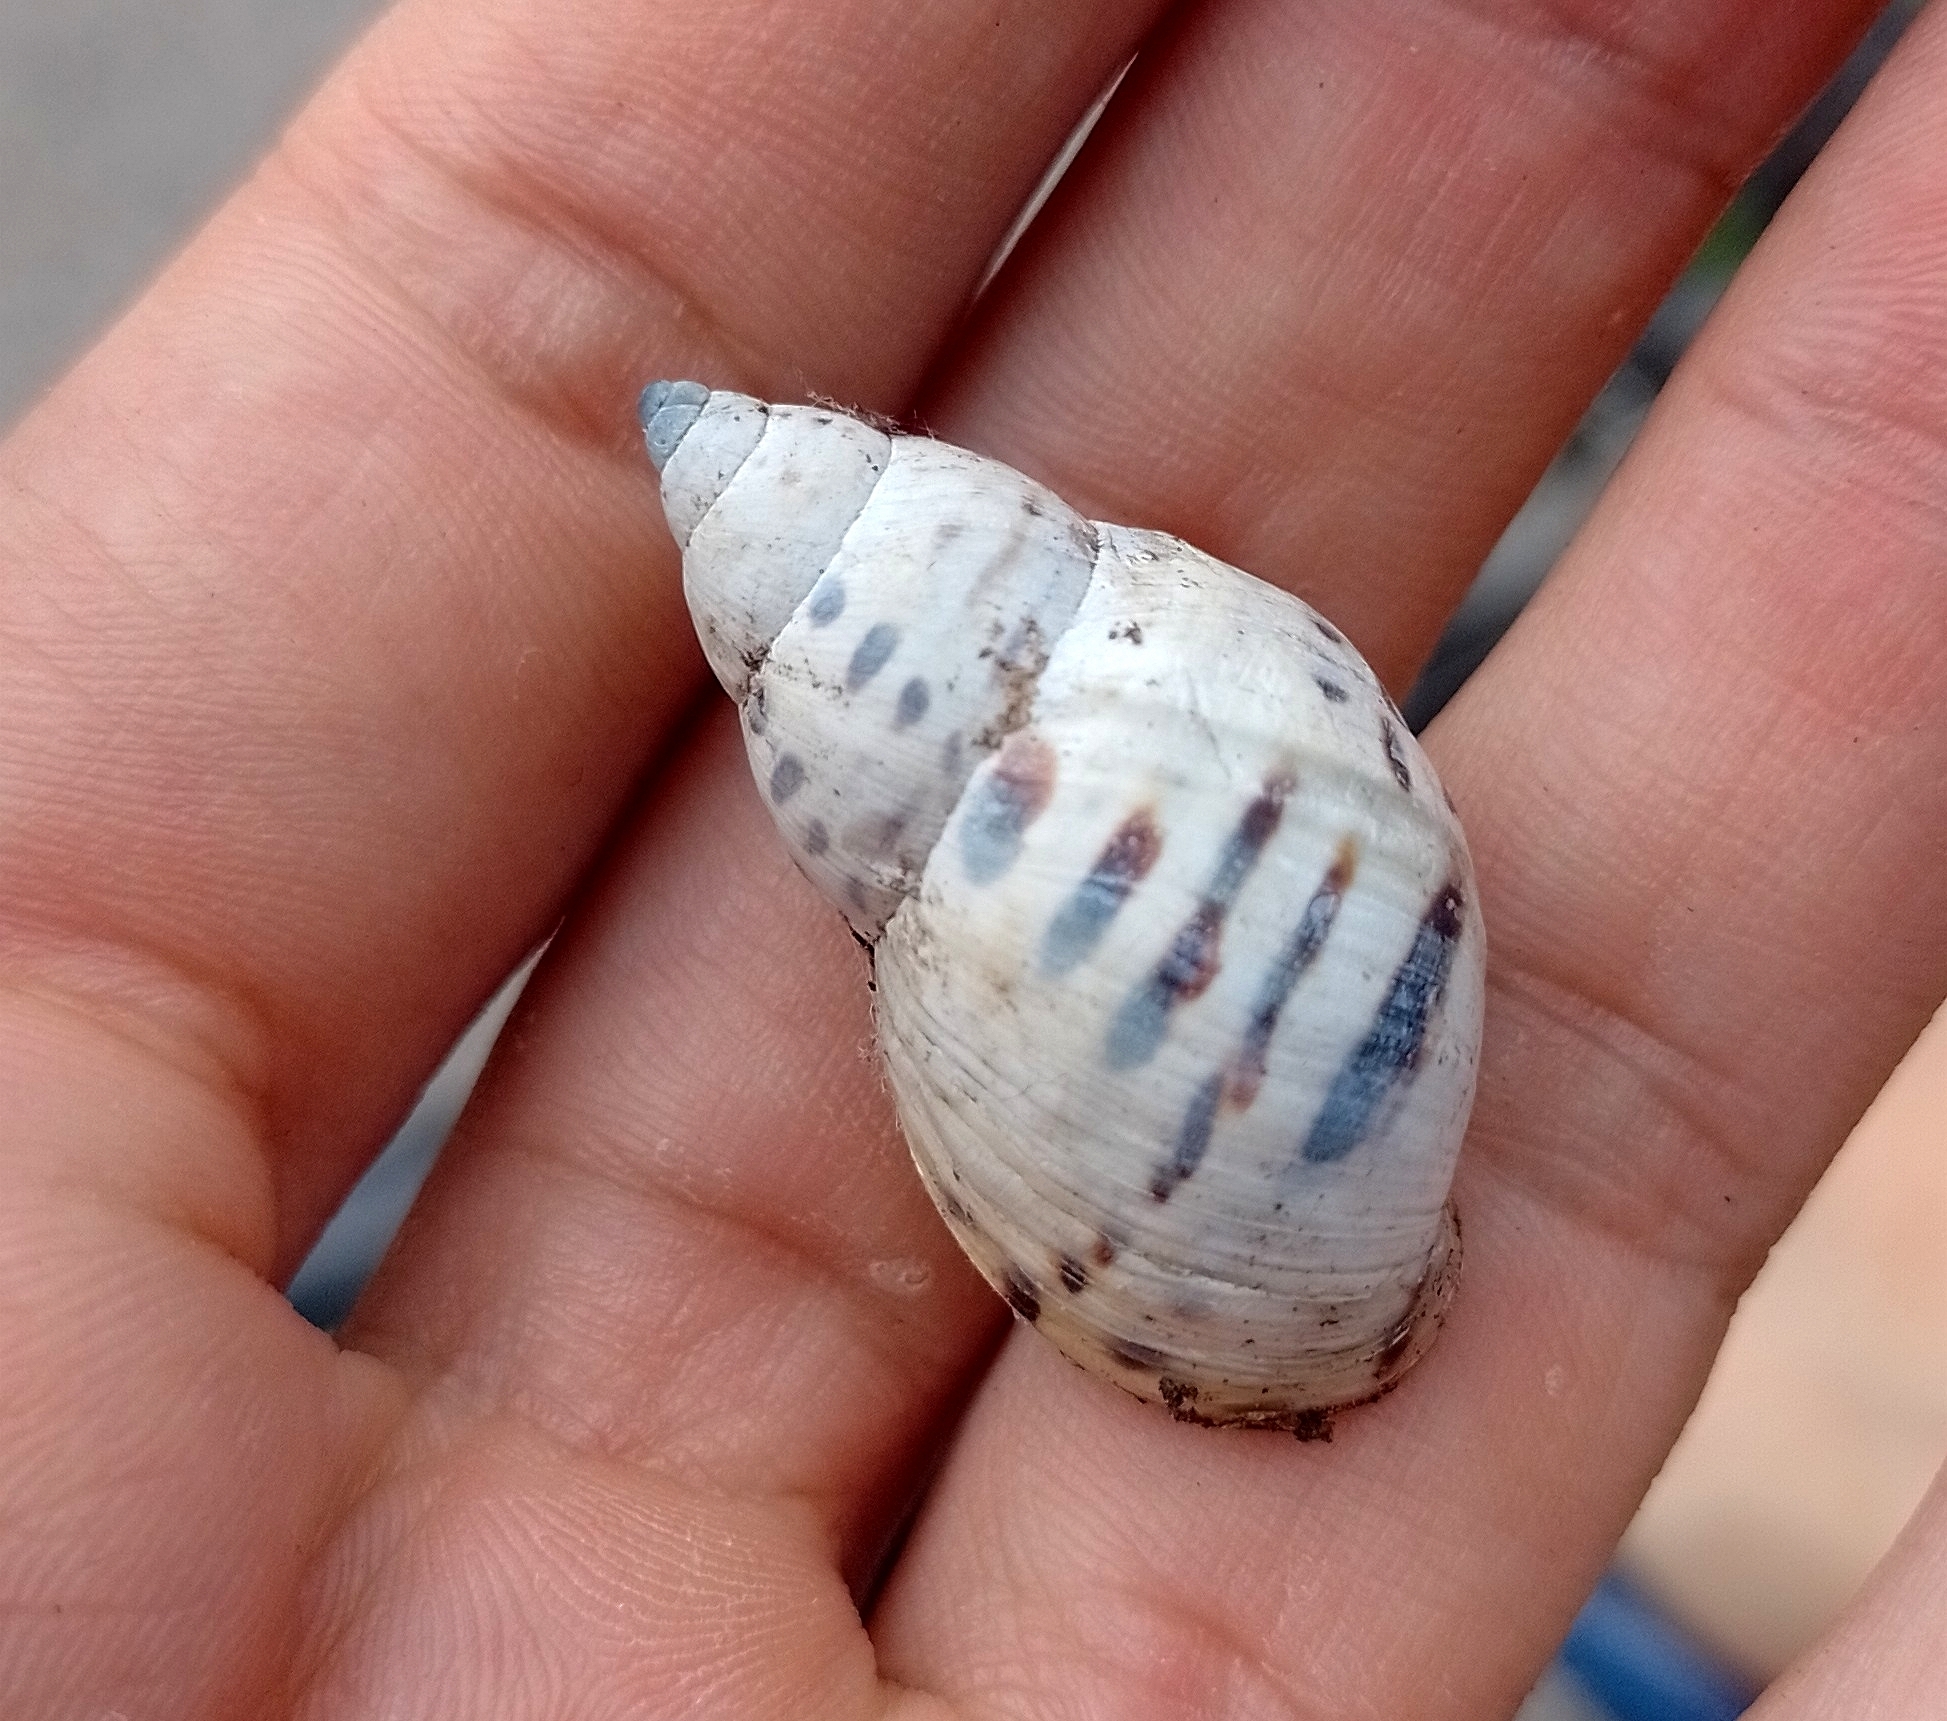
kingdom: Animalia
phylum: Mollusca
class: Gastropoda
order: Stylommatophora
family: Bulimulidae
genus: Drymaeus
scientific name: Drymaeus poecilus
